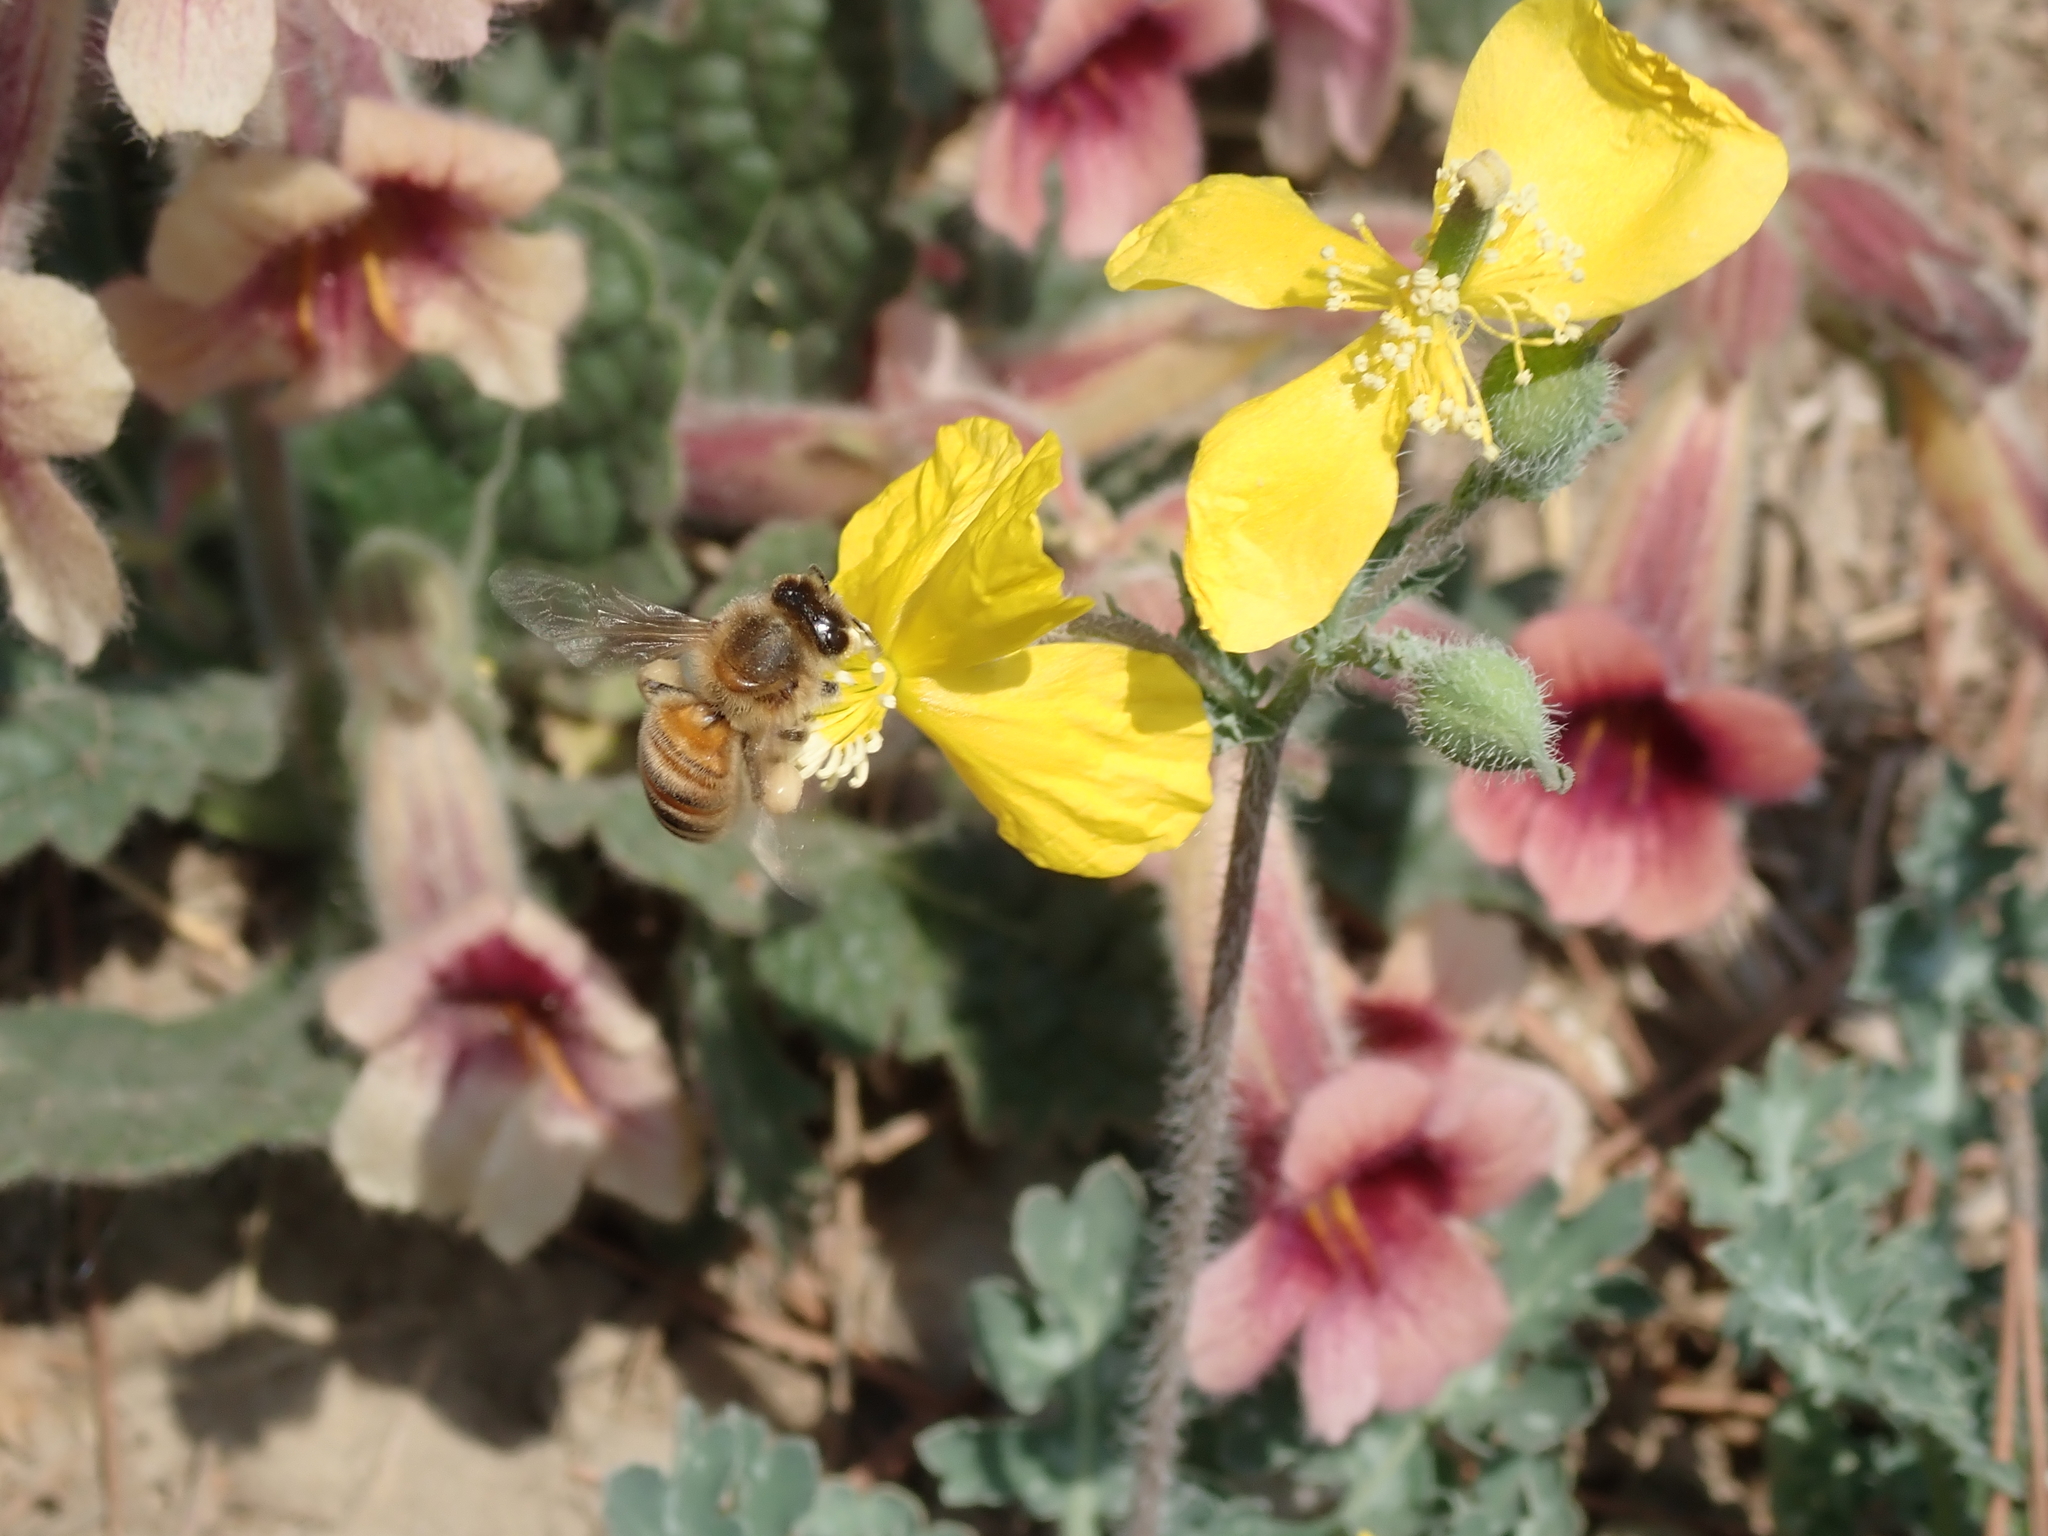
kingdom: Animalia
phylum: Arthropoda
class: Insecta
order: Hymenoptera
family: Apidae
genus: Apis
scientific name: Apis cerana
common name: Honey bee
